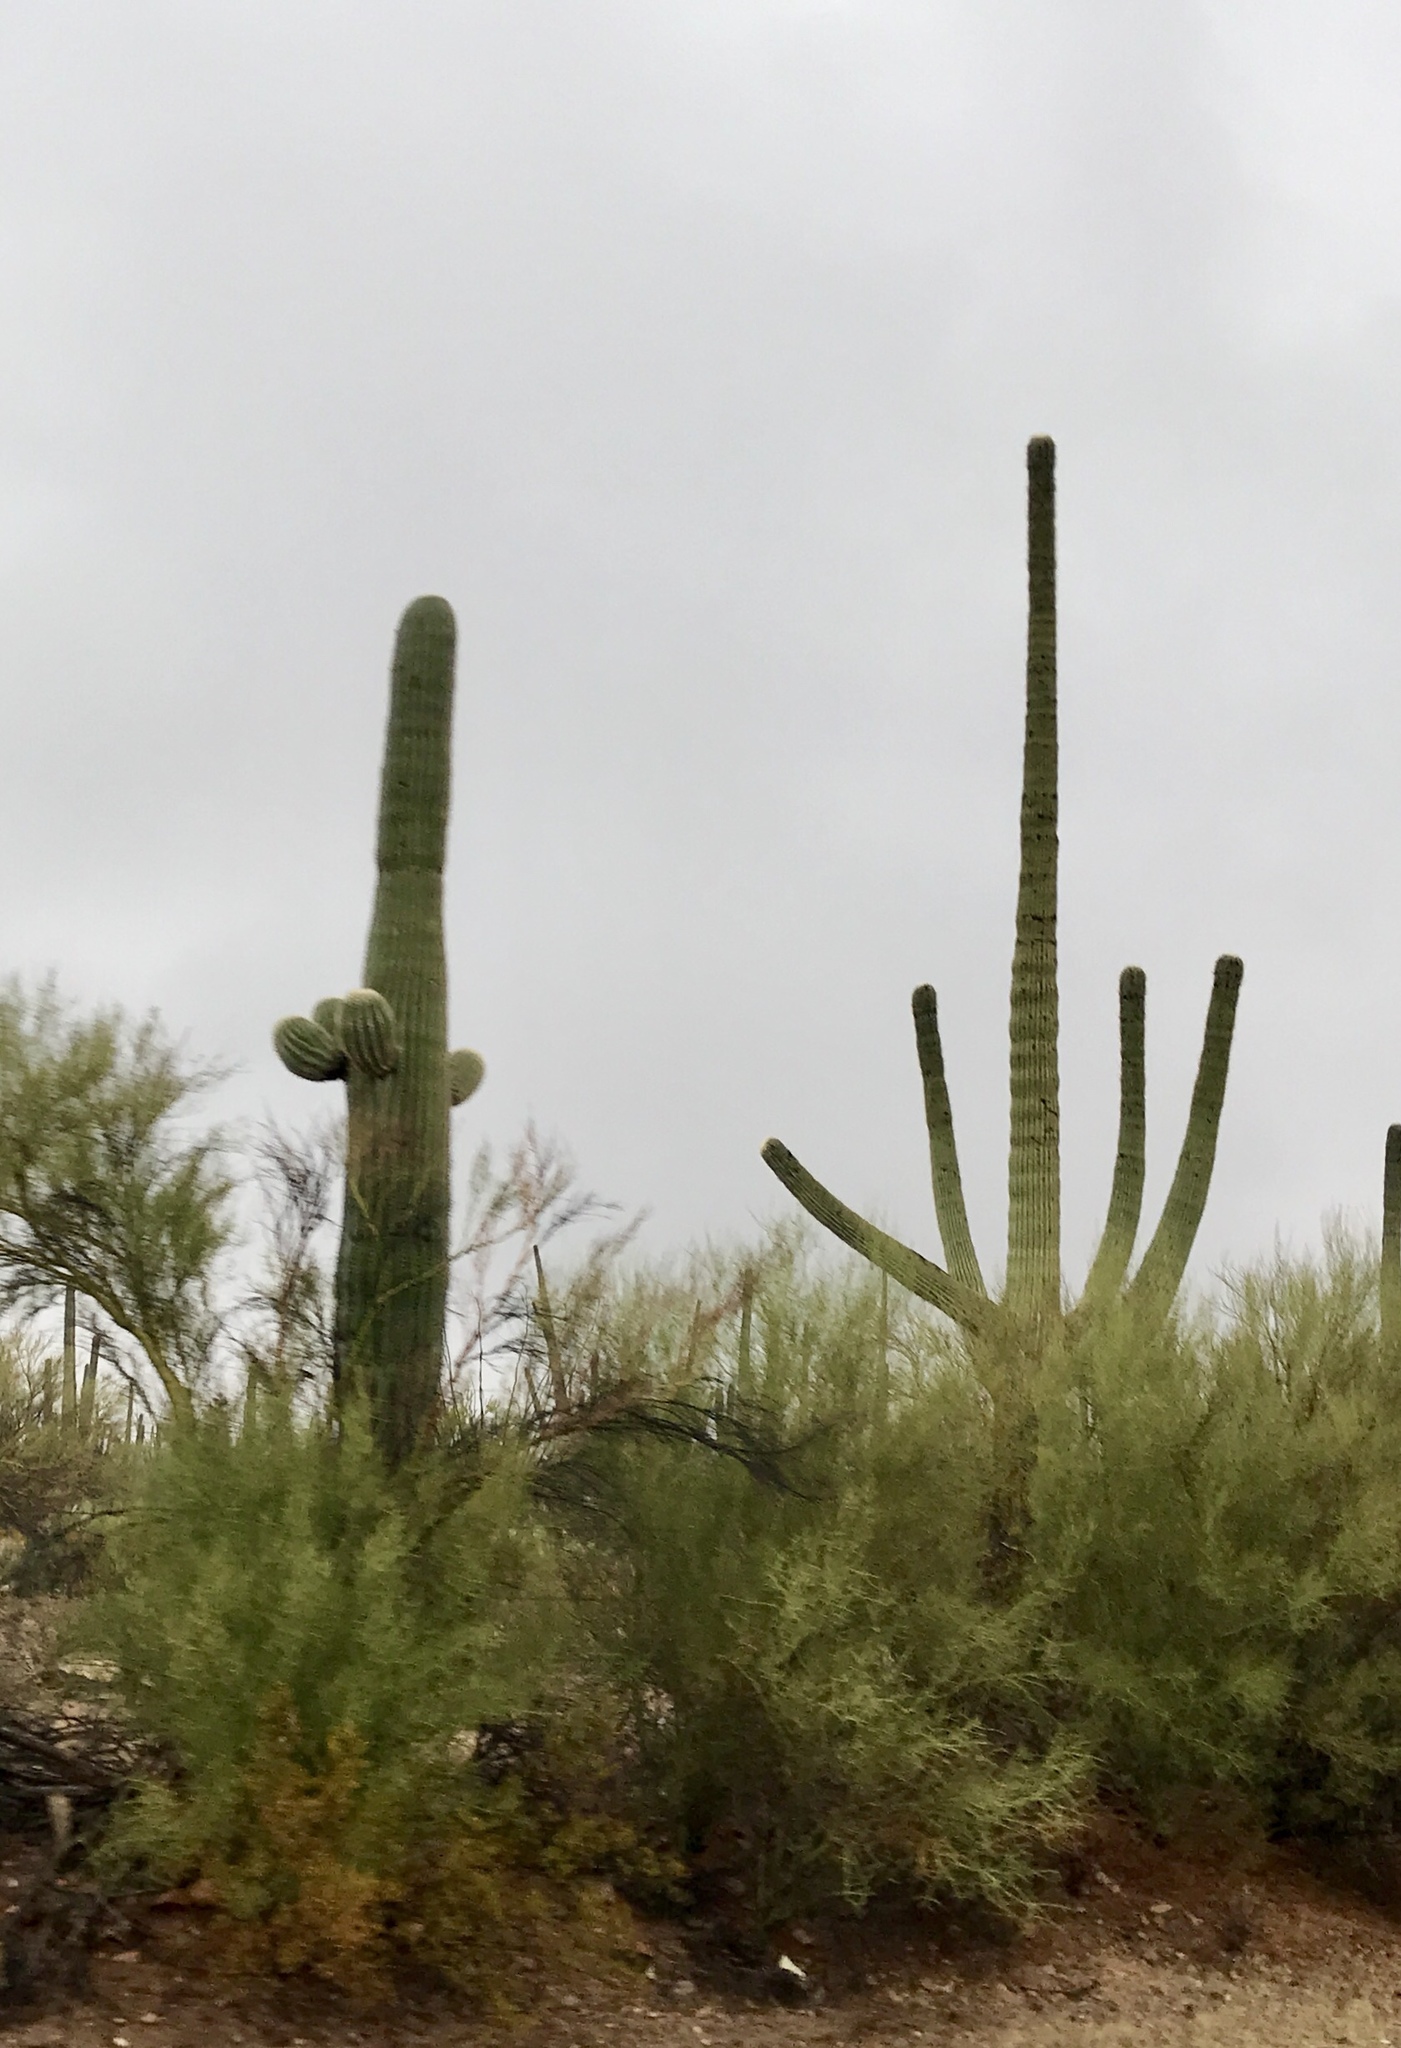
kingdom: Plantae
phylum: Tracheophyta
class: Magnoliopsida
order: Caryophyllales
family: Cactaceae
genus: Carnegiea
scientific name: Carnegiea gigantea
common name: Saguaro
